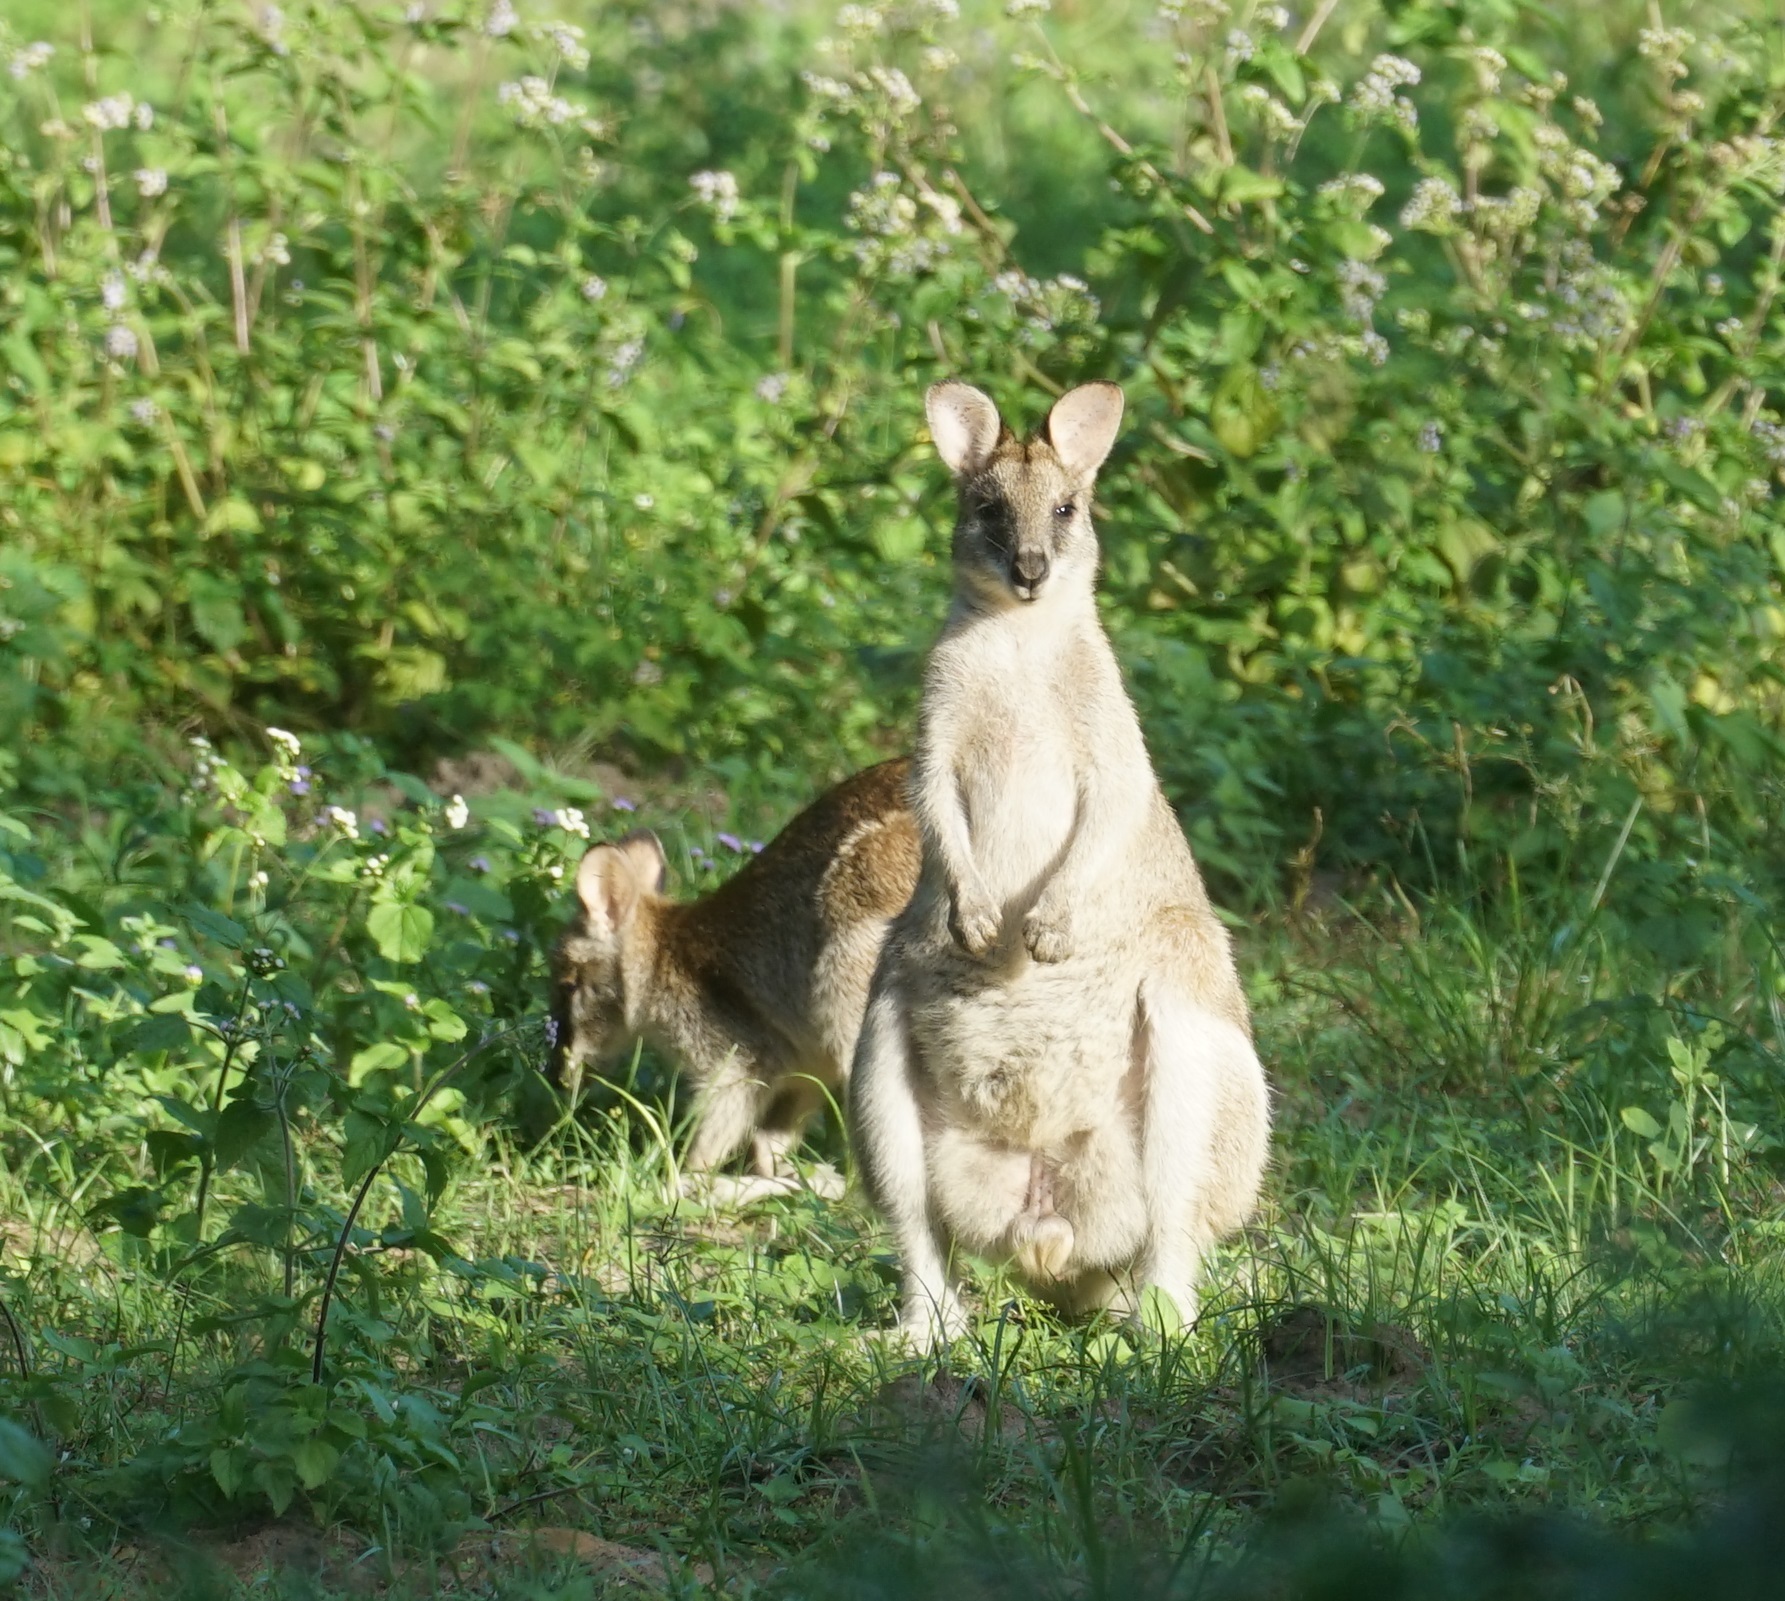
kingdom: Animalia
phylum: Chordata
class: Mammalia
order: Diprotodontia
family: Macropodidae
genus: Macropus
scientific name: Macropus agilis
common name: Agile wallaby
